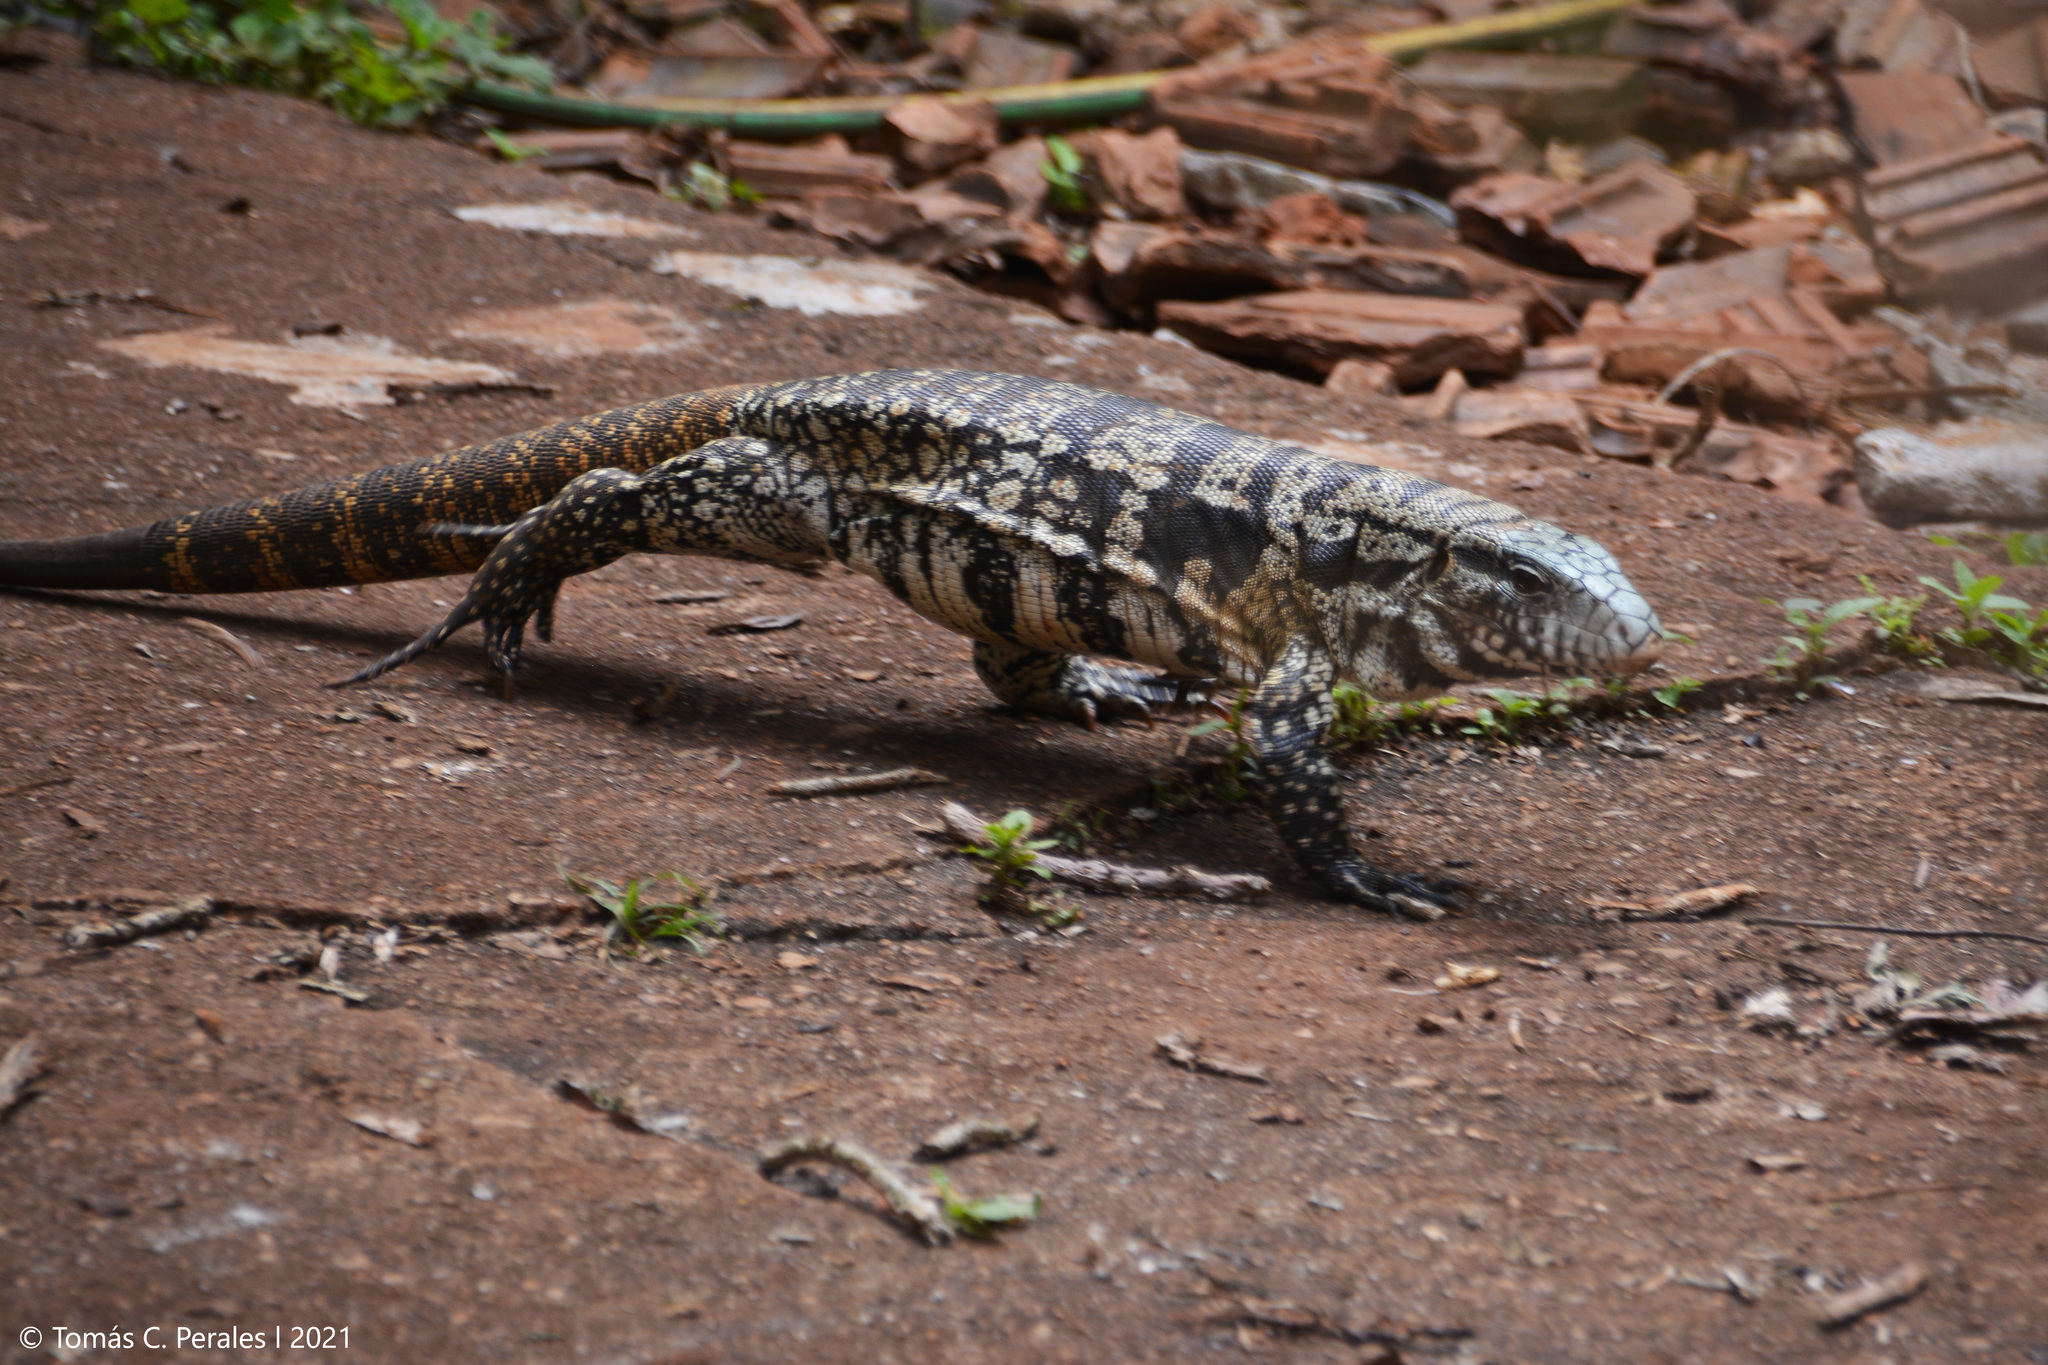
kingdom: Animalia
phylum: Chordata
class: Squamata
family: Teiidae
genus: Salvator
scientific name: Salvator merianae
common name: Argentine black and white tegu
